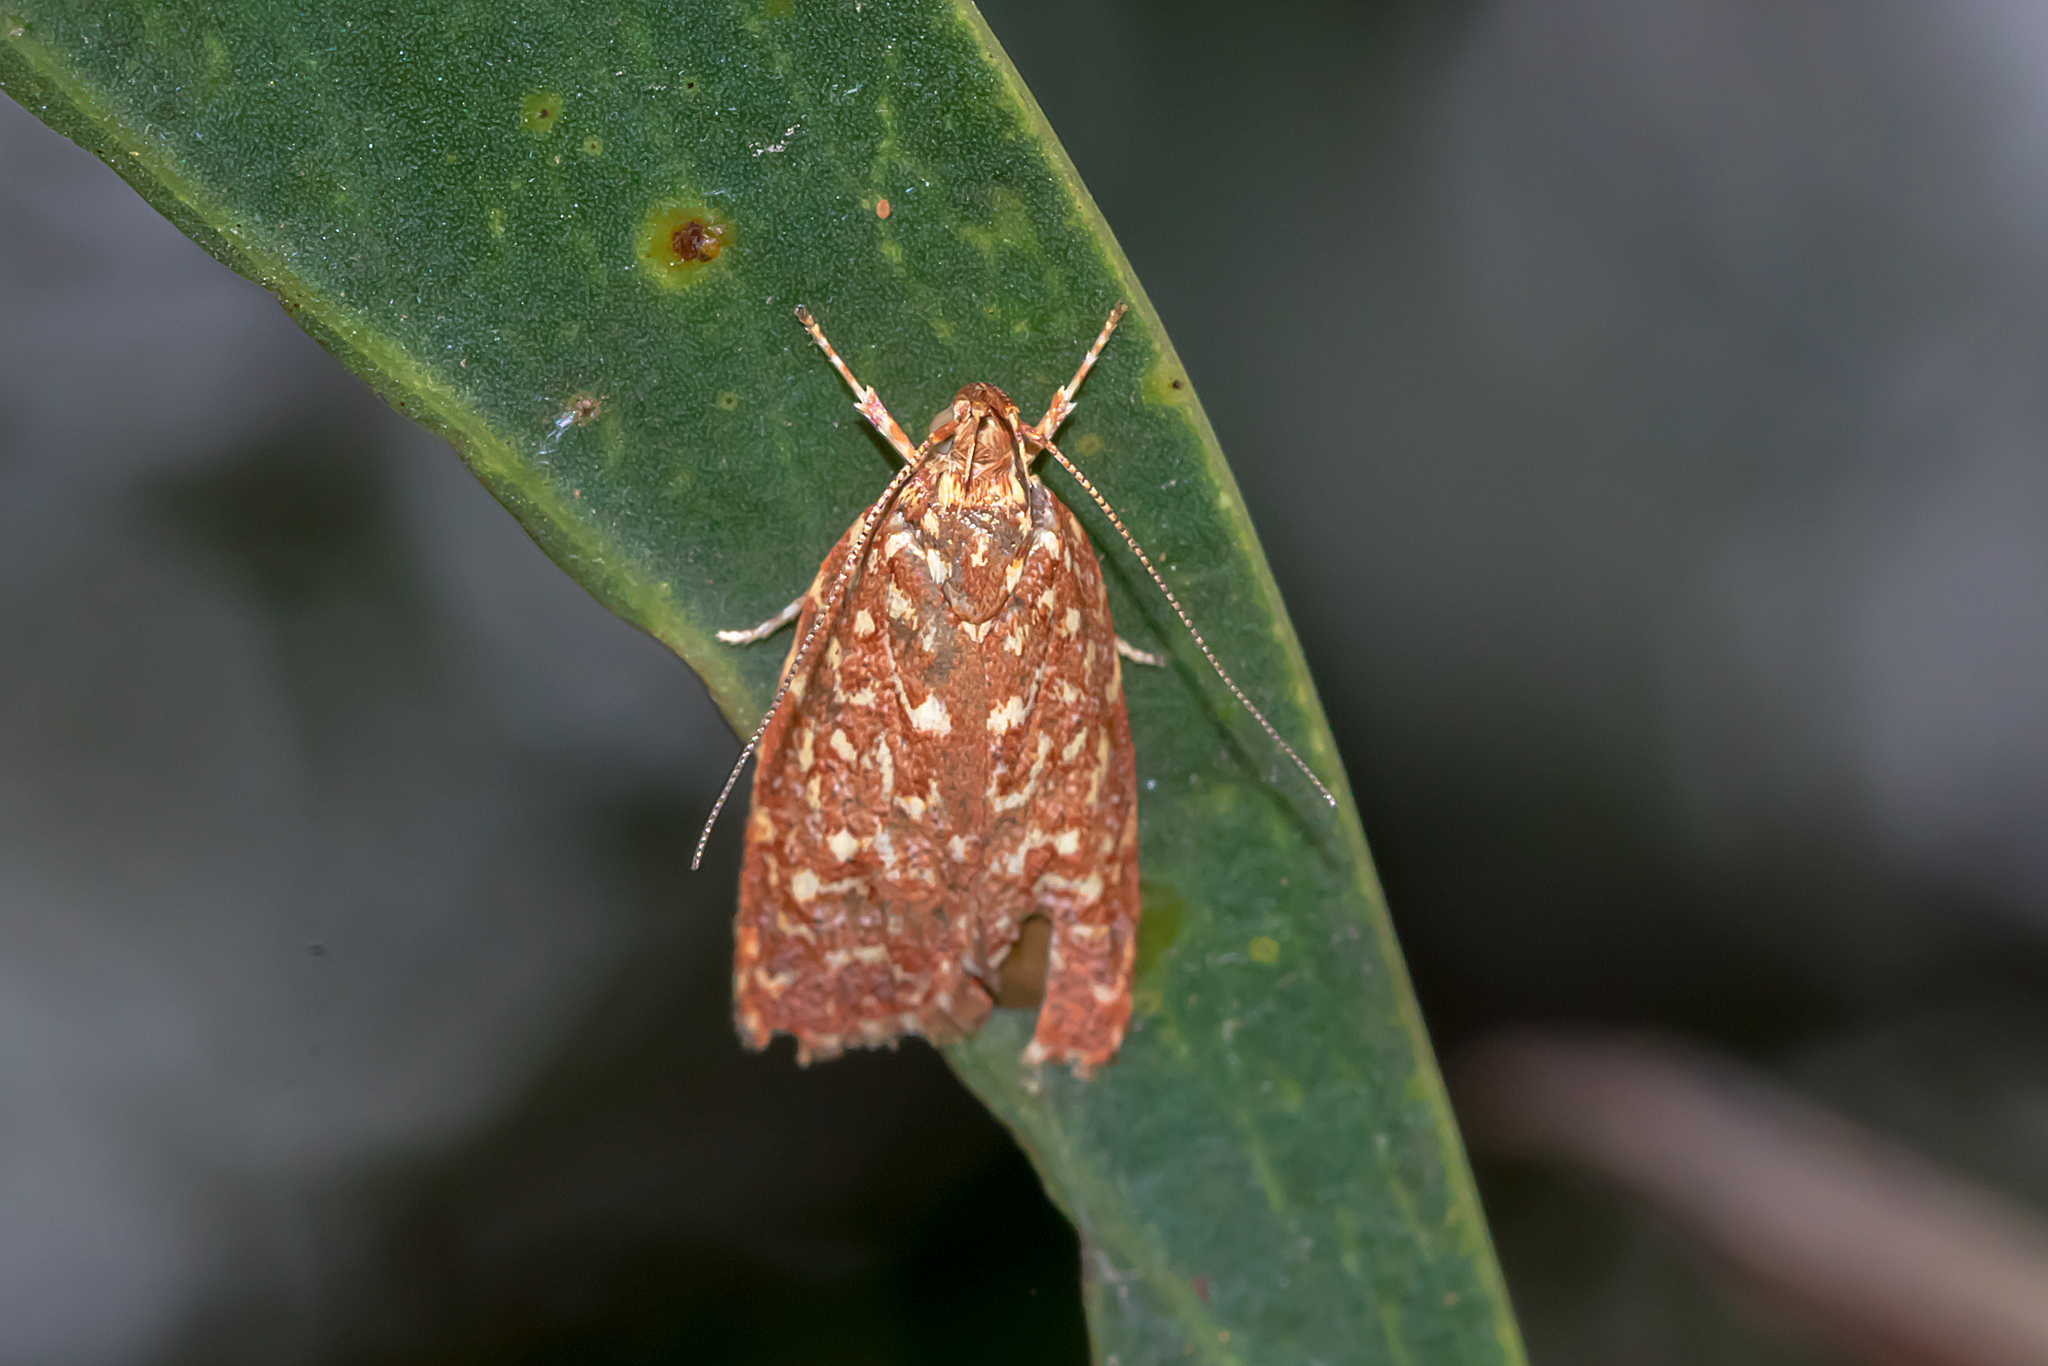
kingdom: Animalia
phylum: Arthropoda
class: Insecta
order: Lepidoptera
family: Oecophoridae
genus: Syringoseca
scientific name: Syringoseca rhodoxantha
